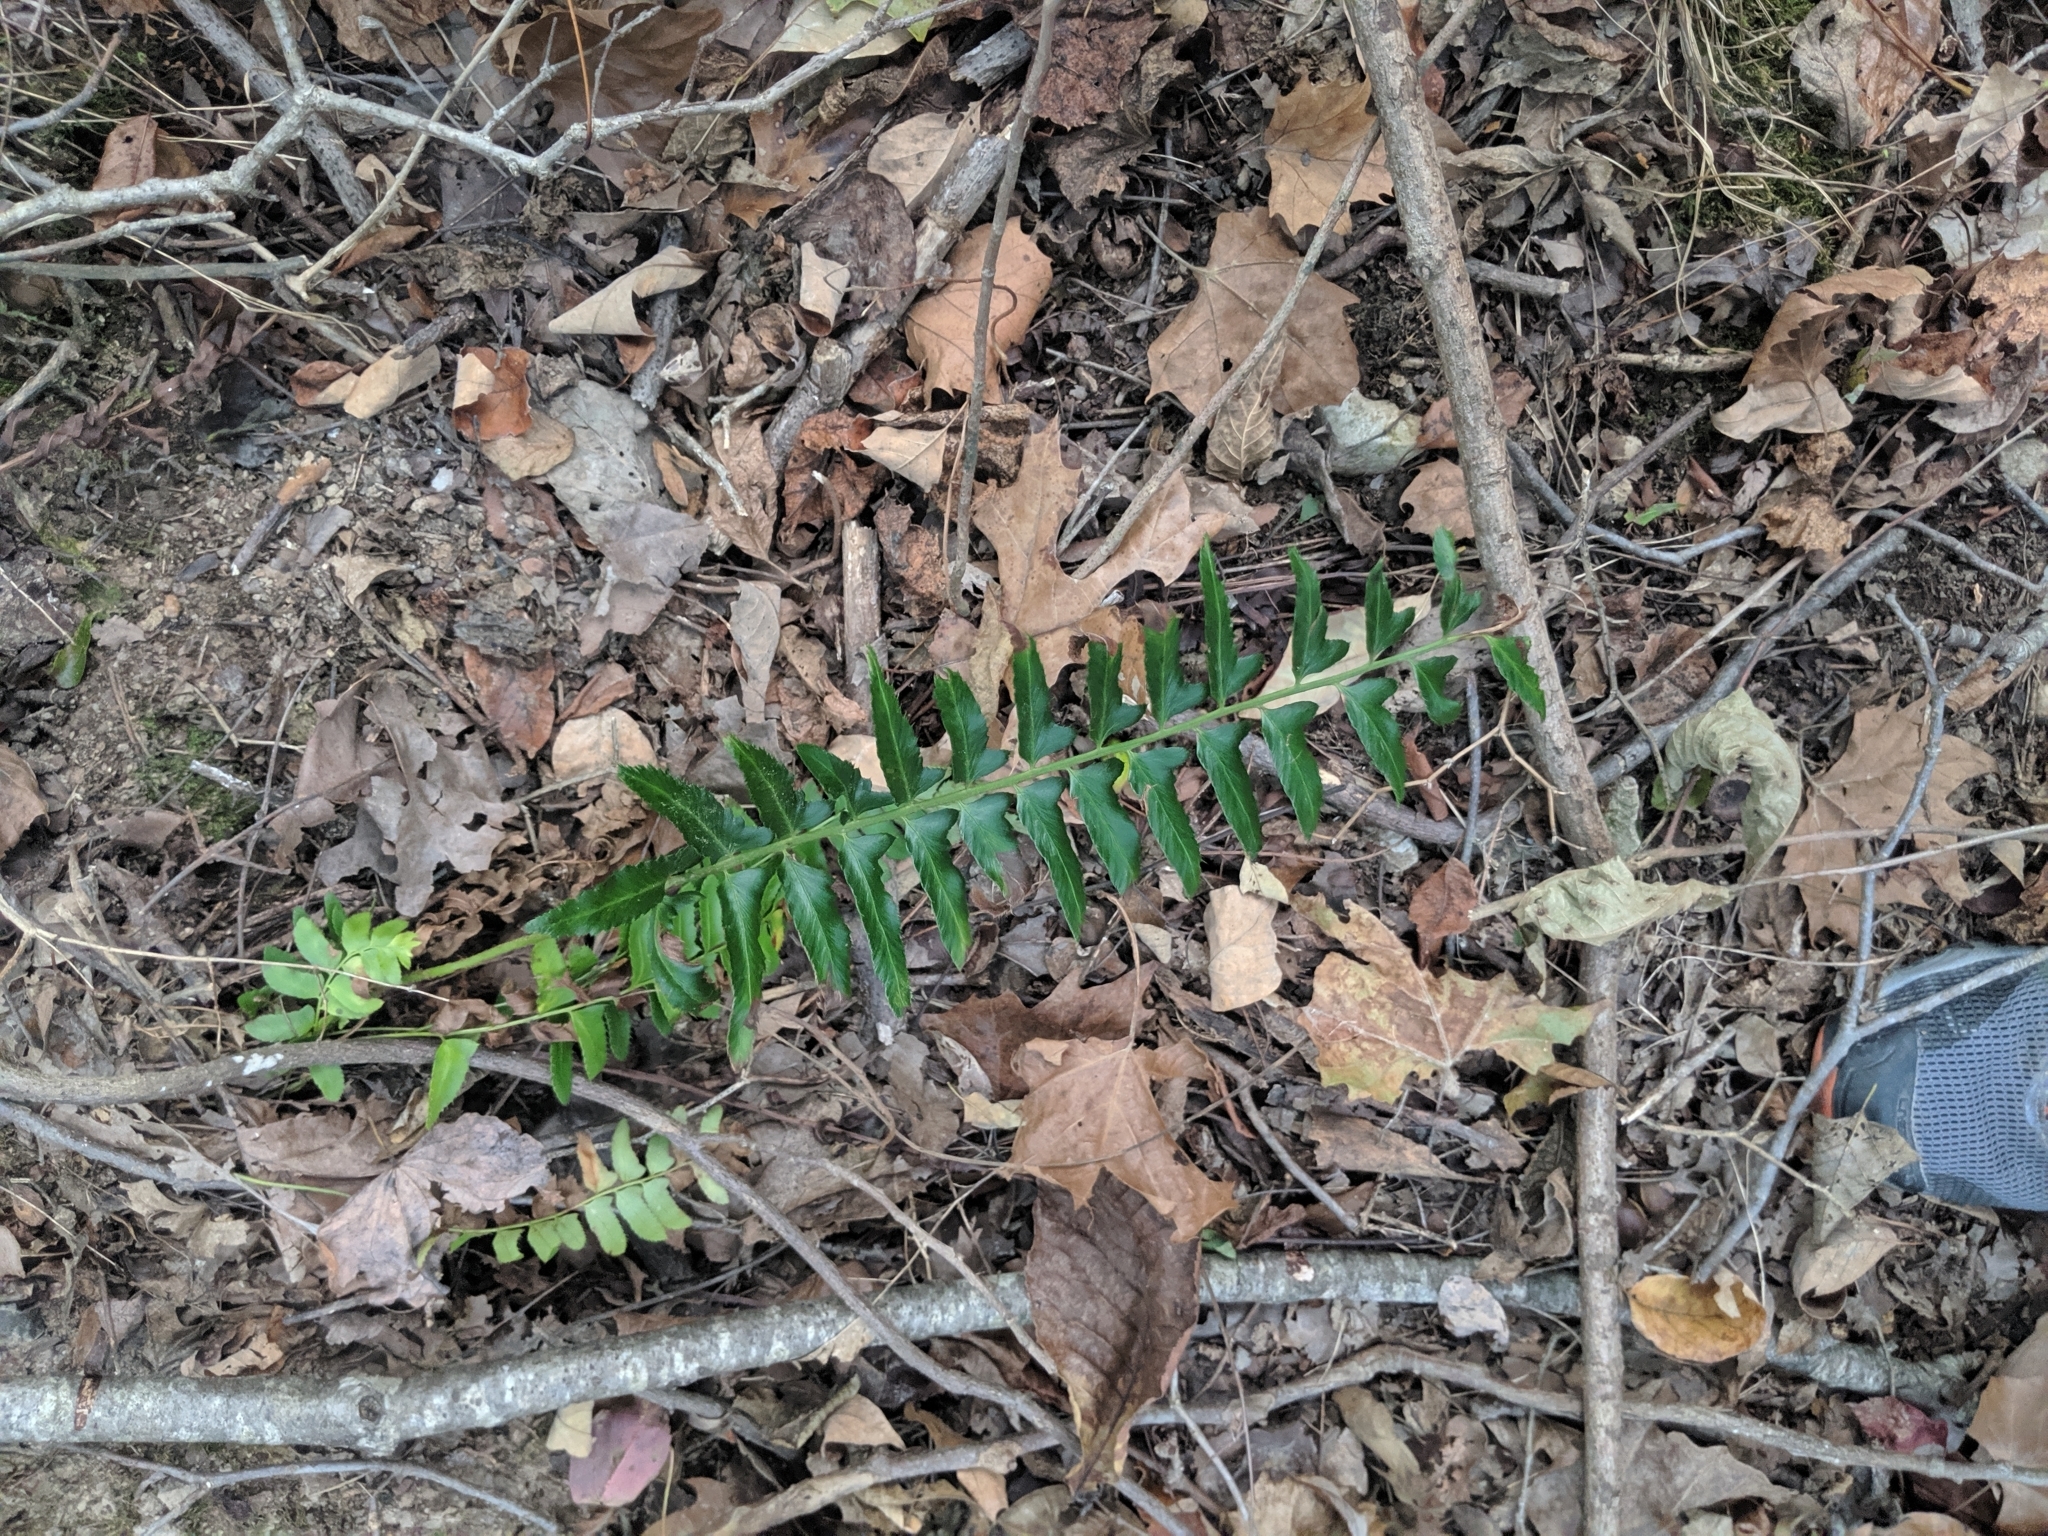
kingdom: Plantae
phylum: Tracheophyta
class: Polypodiopsida
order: Polypodiales
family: Dryopteridaceae
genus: Polystichum
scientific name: Polystichum acrostichoides
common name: Christmas fern
